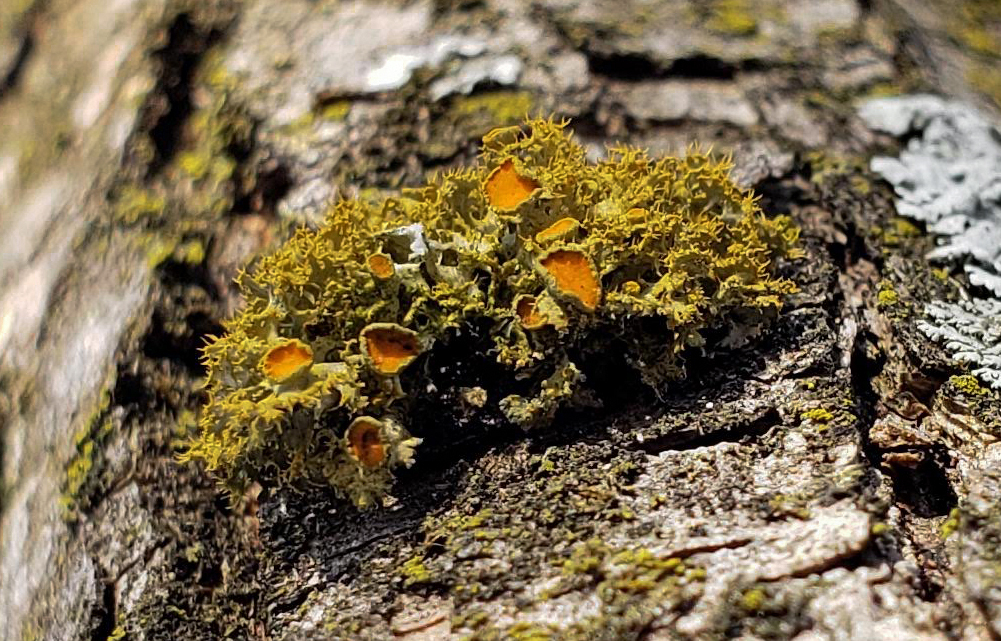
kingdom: Fungi
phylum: Ascomycota
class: Lecanoromycetes
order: Teloschistales
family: Teloschistaceae
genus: Niorma
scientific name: Niorma chrysophthalma
